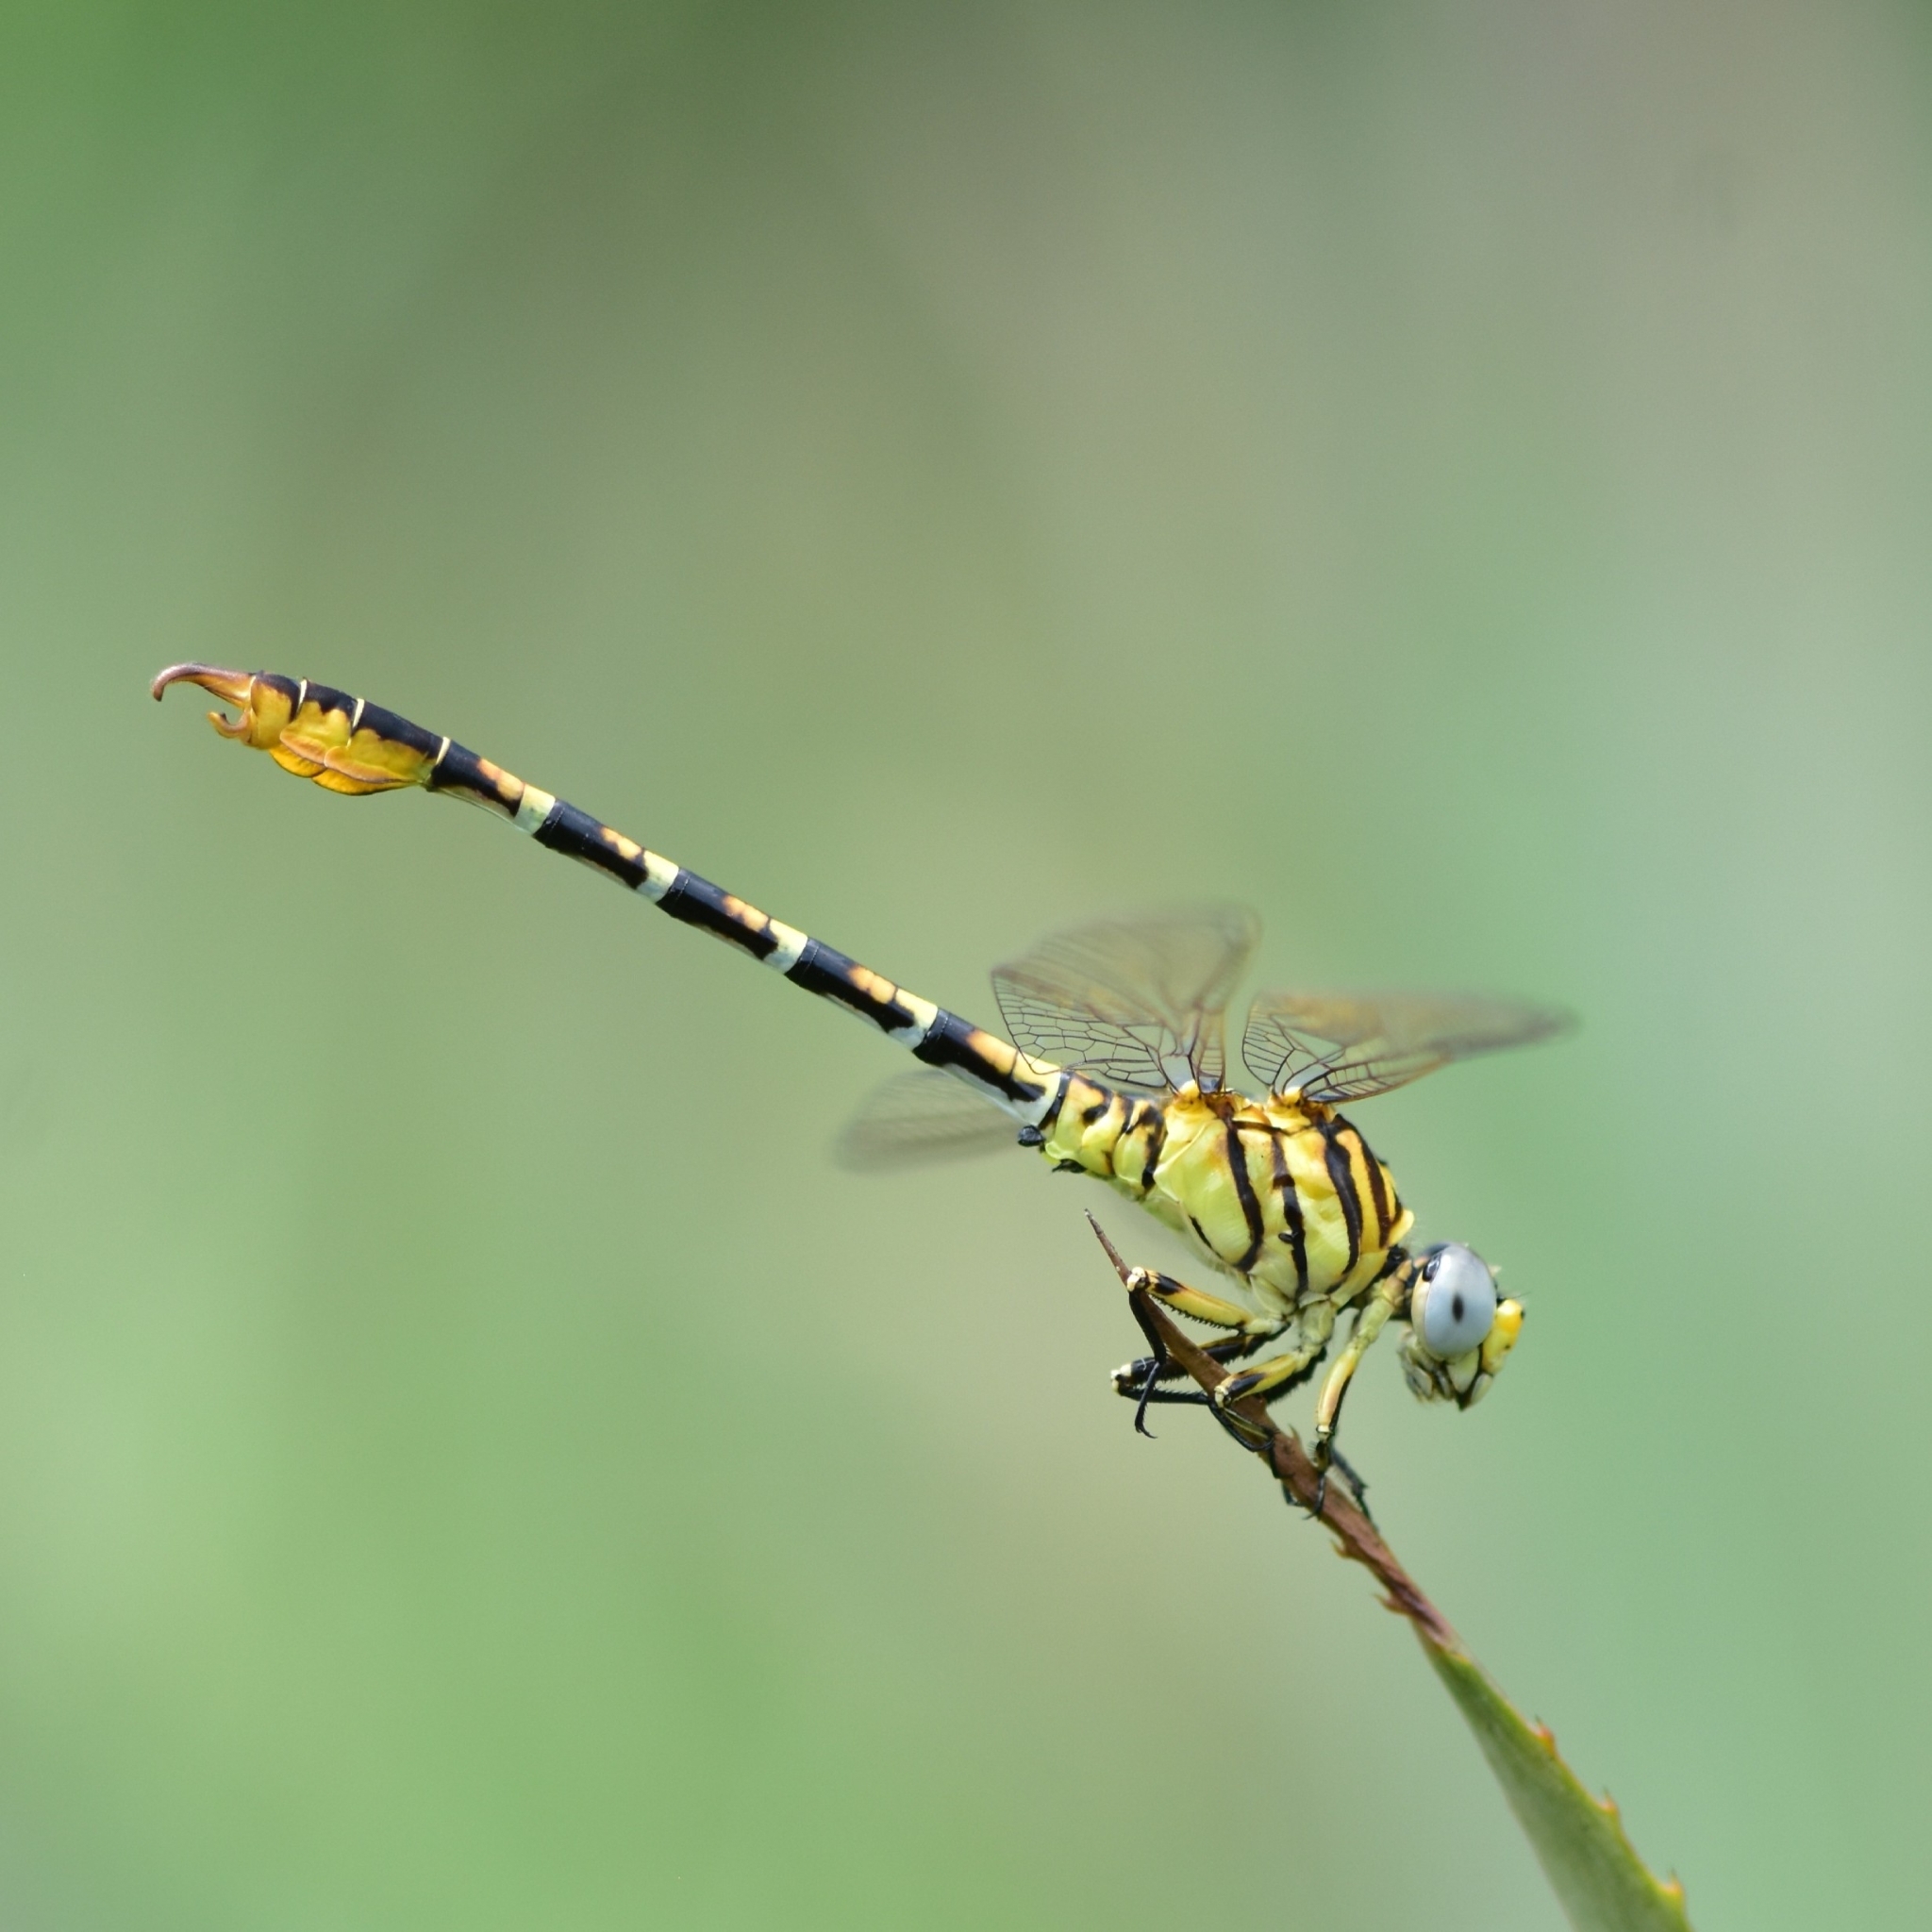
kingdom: Animalia
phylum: Arthropoda
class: Insecta
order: Odonata
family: Gomphidae
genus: Paragomphus
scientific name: Paragomphus lineatus
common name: Lined hooktail
